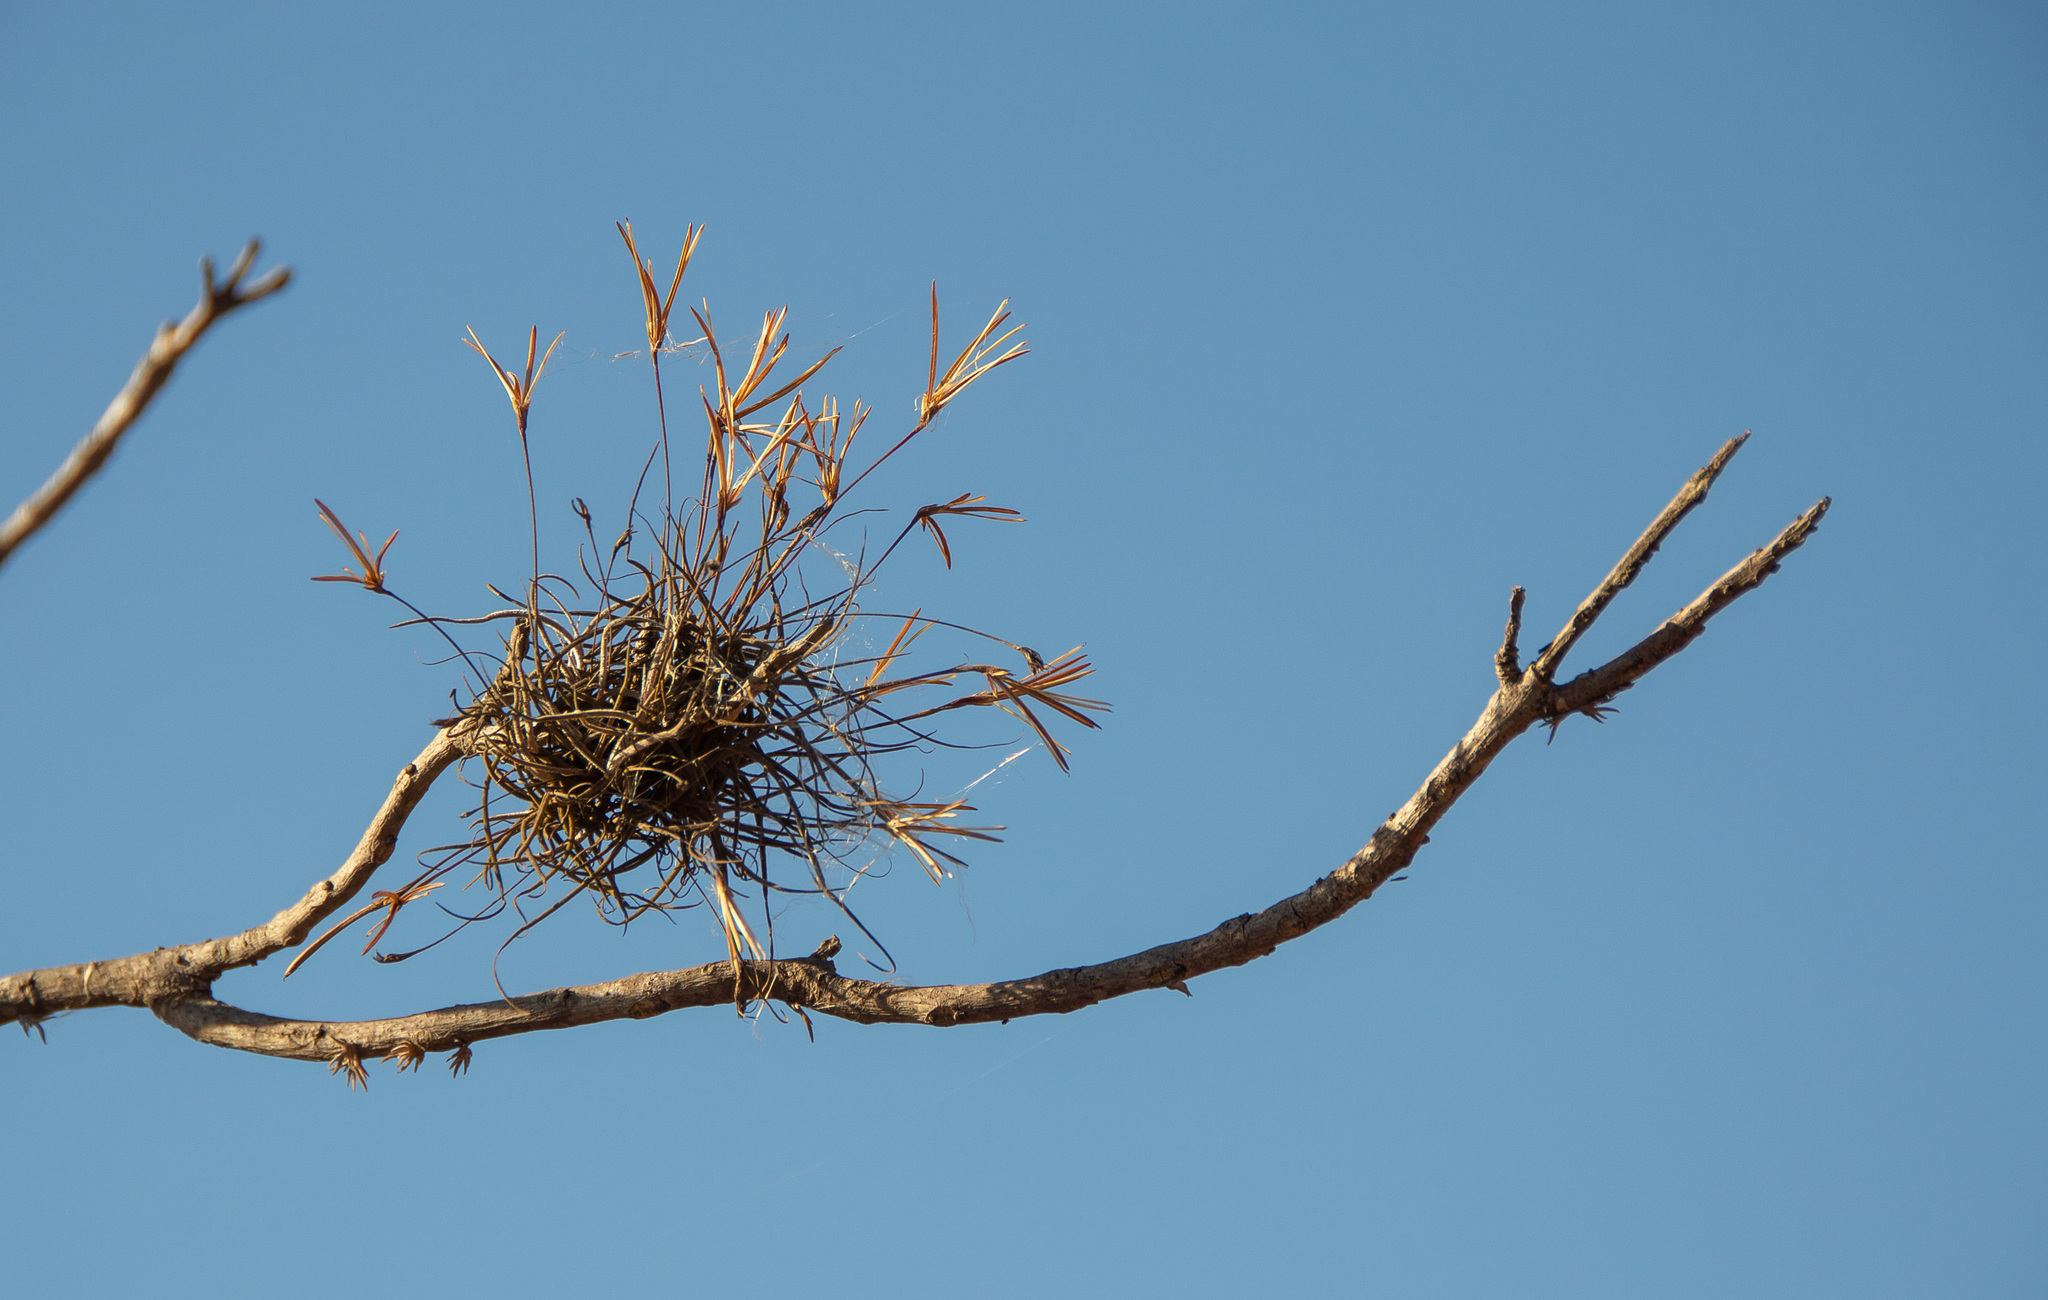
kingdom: Plantae
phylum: Tracheophyta
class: Liliopsida
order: Poales
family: Bromeliaceae
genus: Tillandsia
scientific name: Tillandsia recurvata
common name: Small ballmoss
